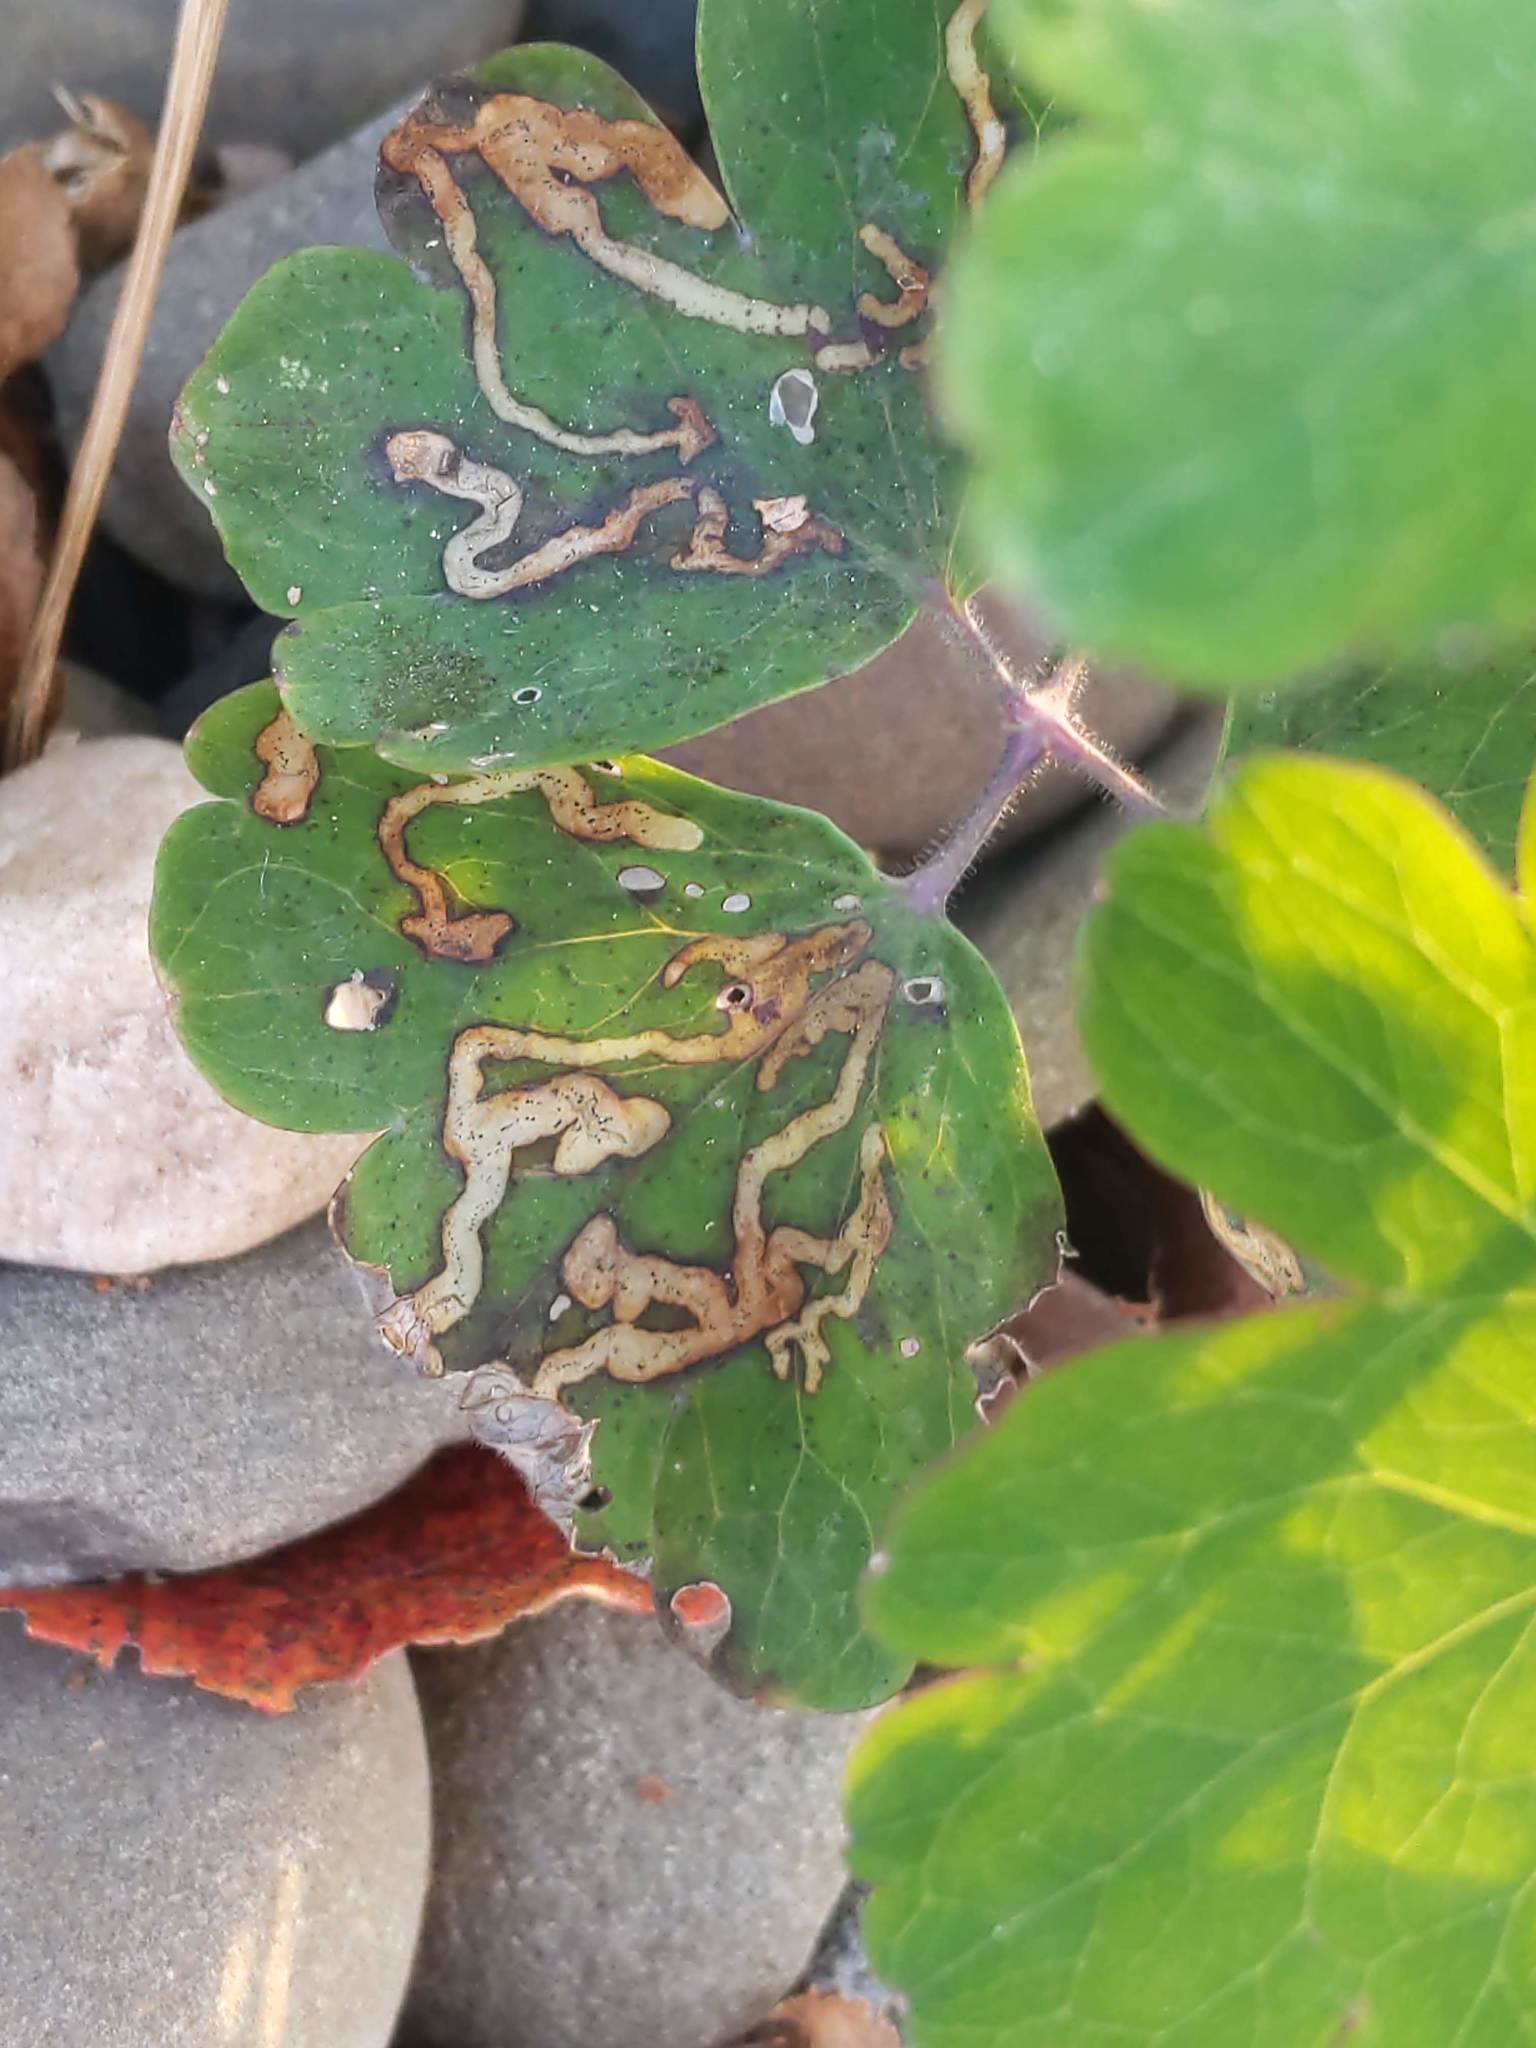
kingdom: Animalia
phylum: Arthropoda
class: Insecta
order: Diptera
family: Agromyzidae
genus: Phytomyza
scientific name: Phytomyza
